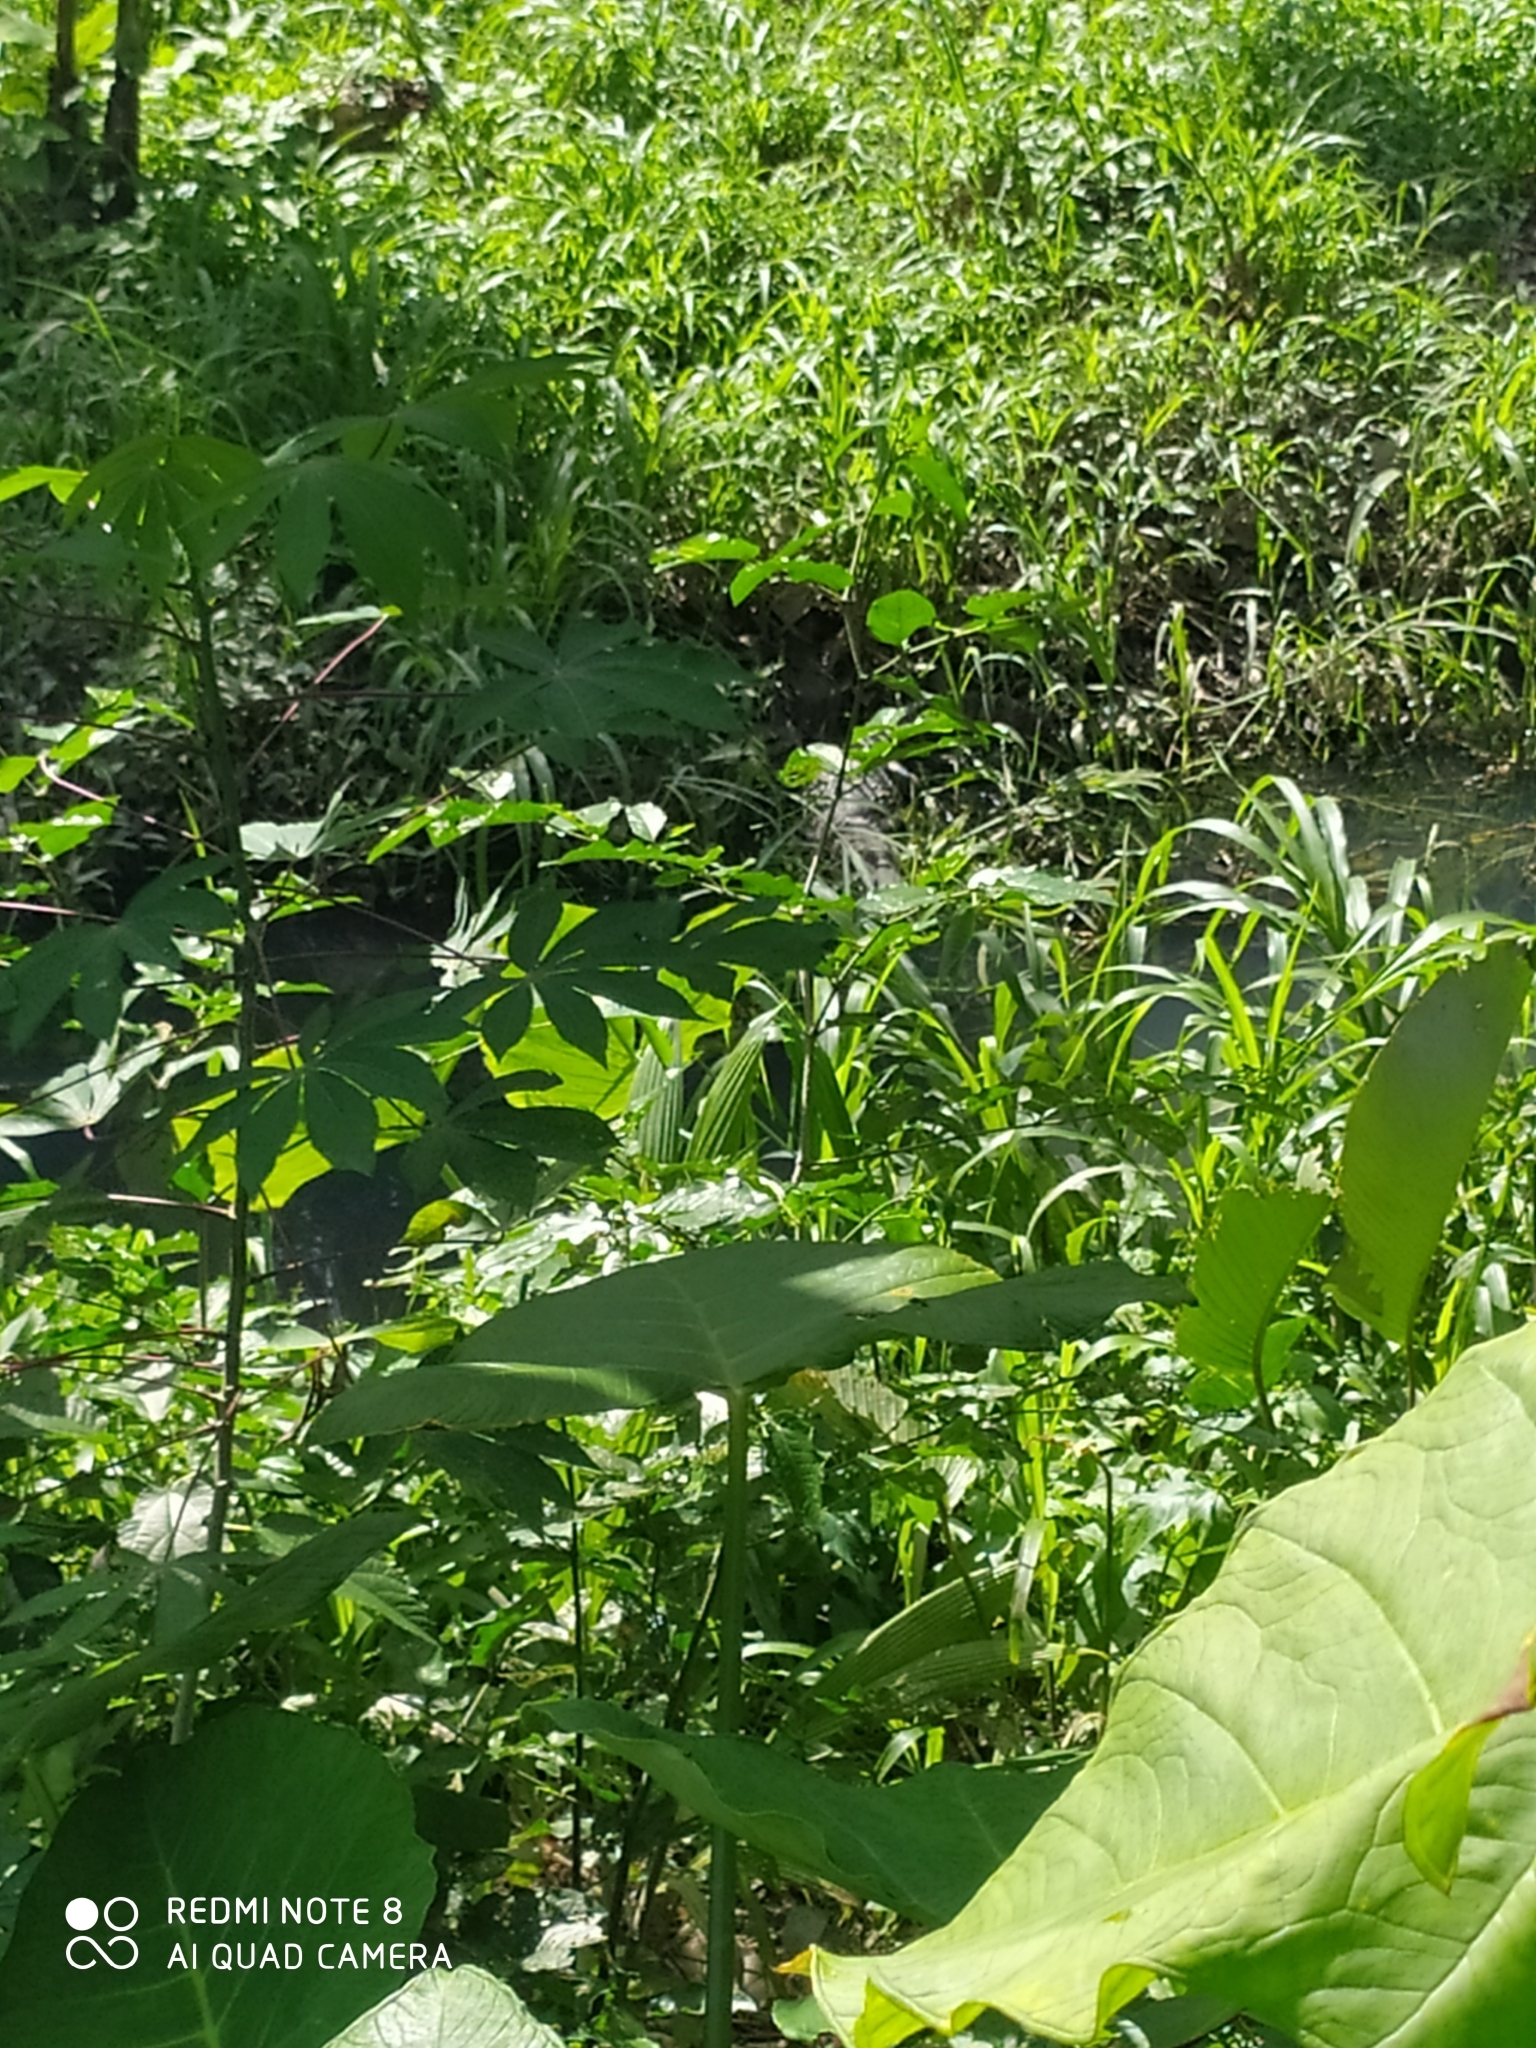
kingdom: Animalia
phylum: Chordata
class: Crocodylia
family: Alligatoridae
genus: Caiman
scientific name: Caiman crocodilus
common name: Common caiman
